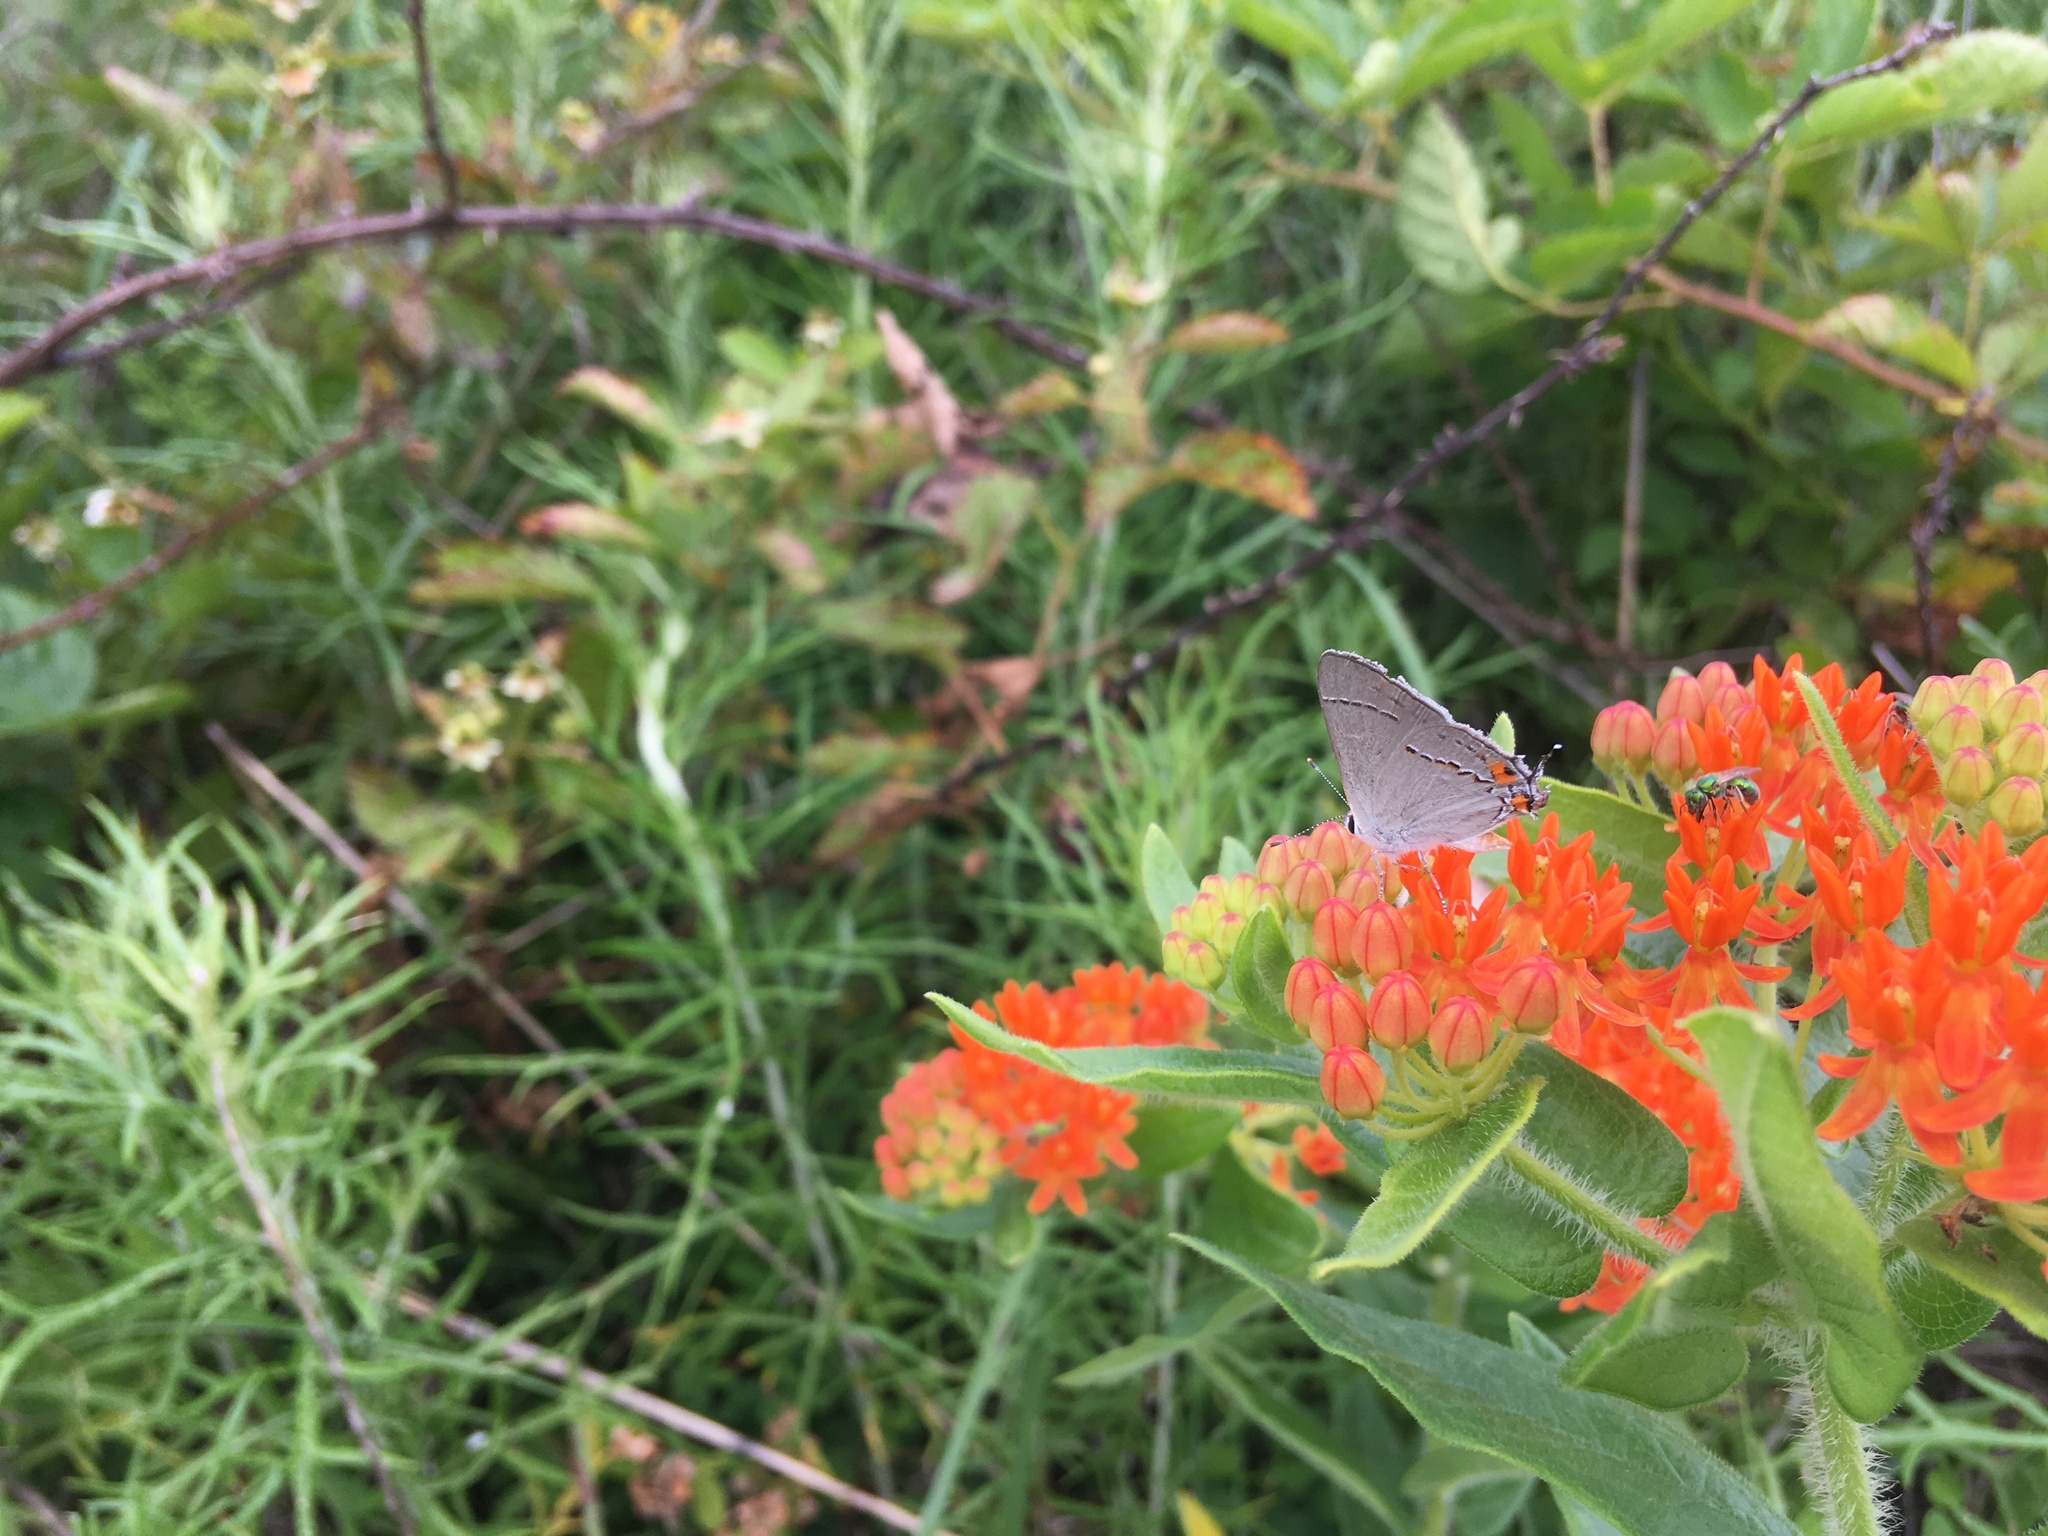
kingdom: Animalia
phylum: Arthropoda
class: Insecta
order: Lepidoptera
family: Lycaenidae
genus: Strymon
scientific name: Strymon melinus
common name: Gray hairstreak
